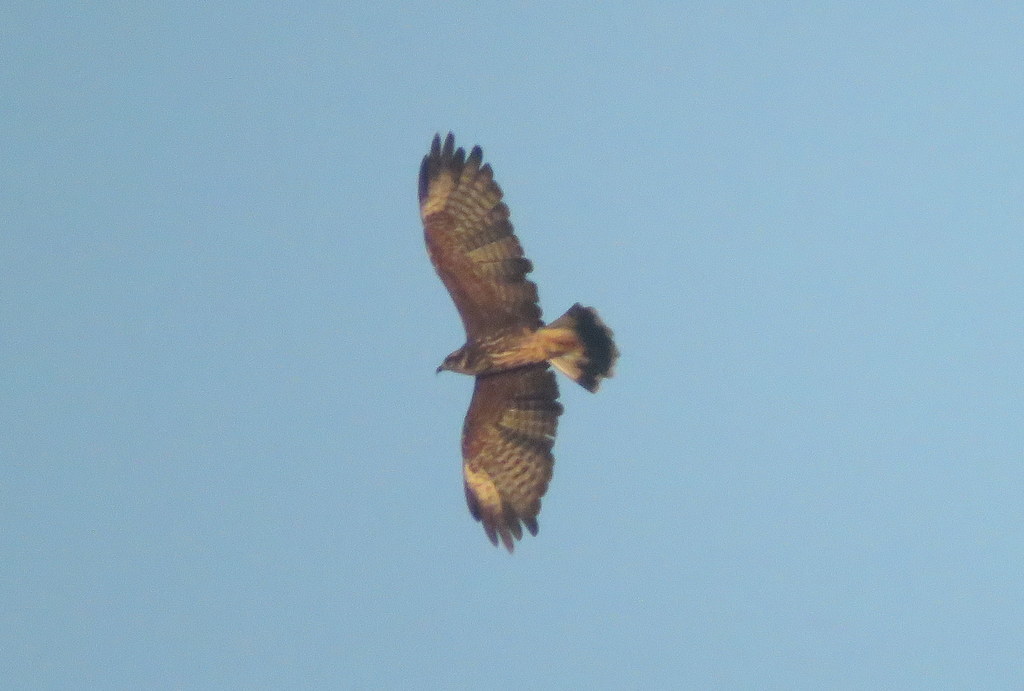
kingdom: Animalia
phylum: Chordata
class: Aves
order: Accipitriformes
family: Accipitridae
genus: Rostrhamus
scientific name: Rostrhamus sociabilis
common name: Snail kite
